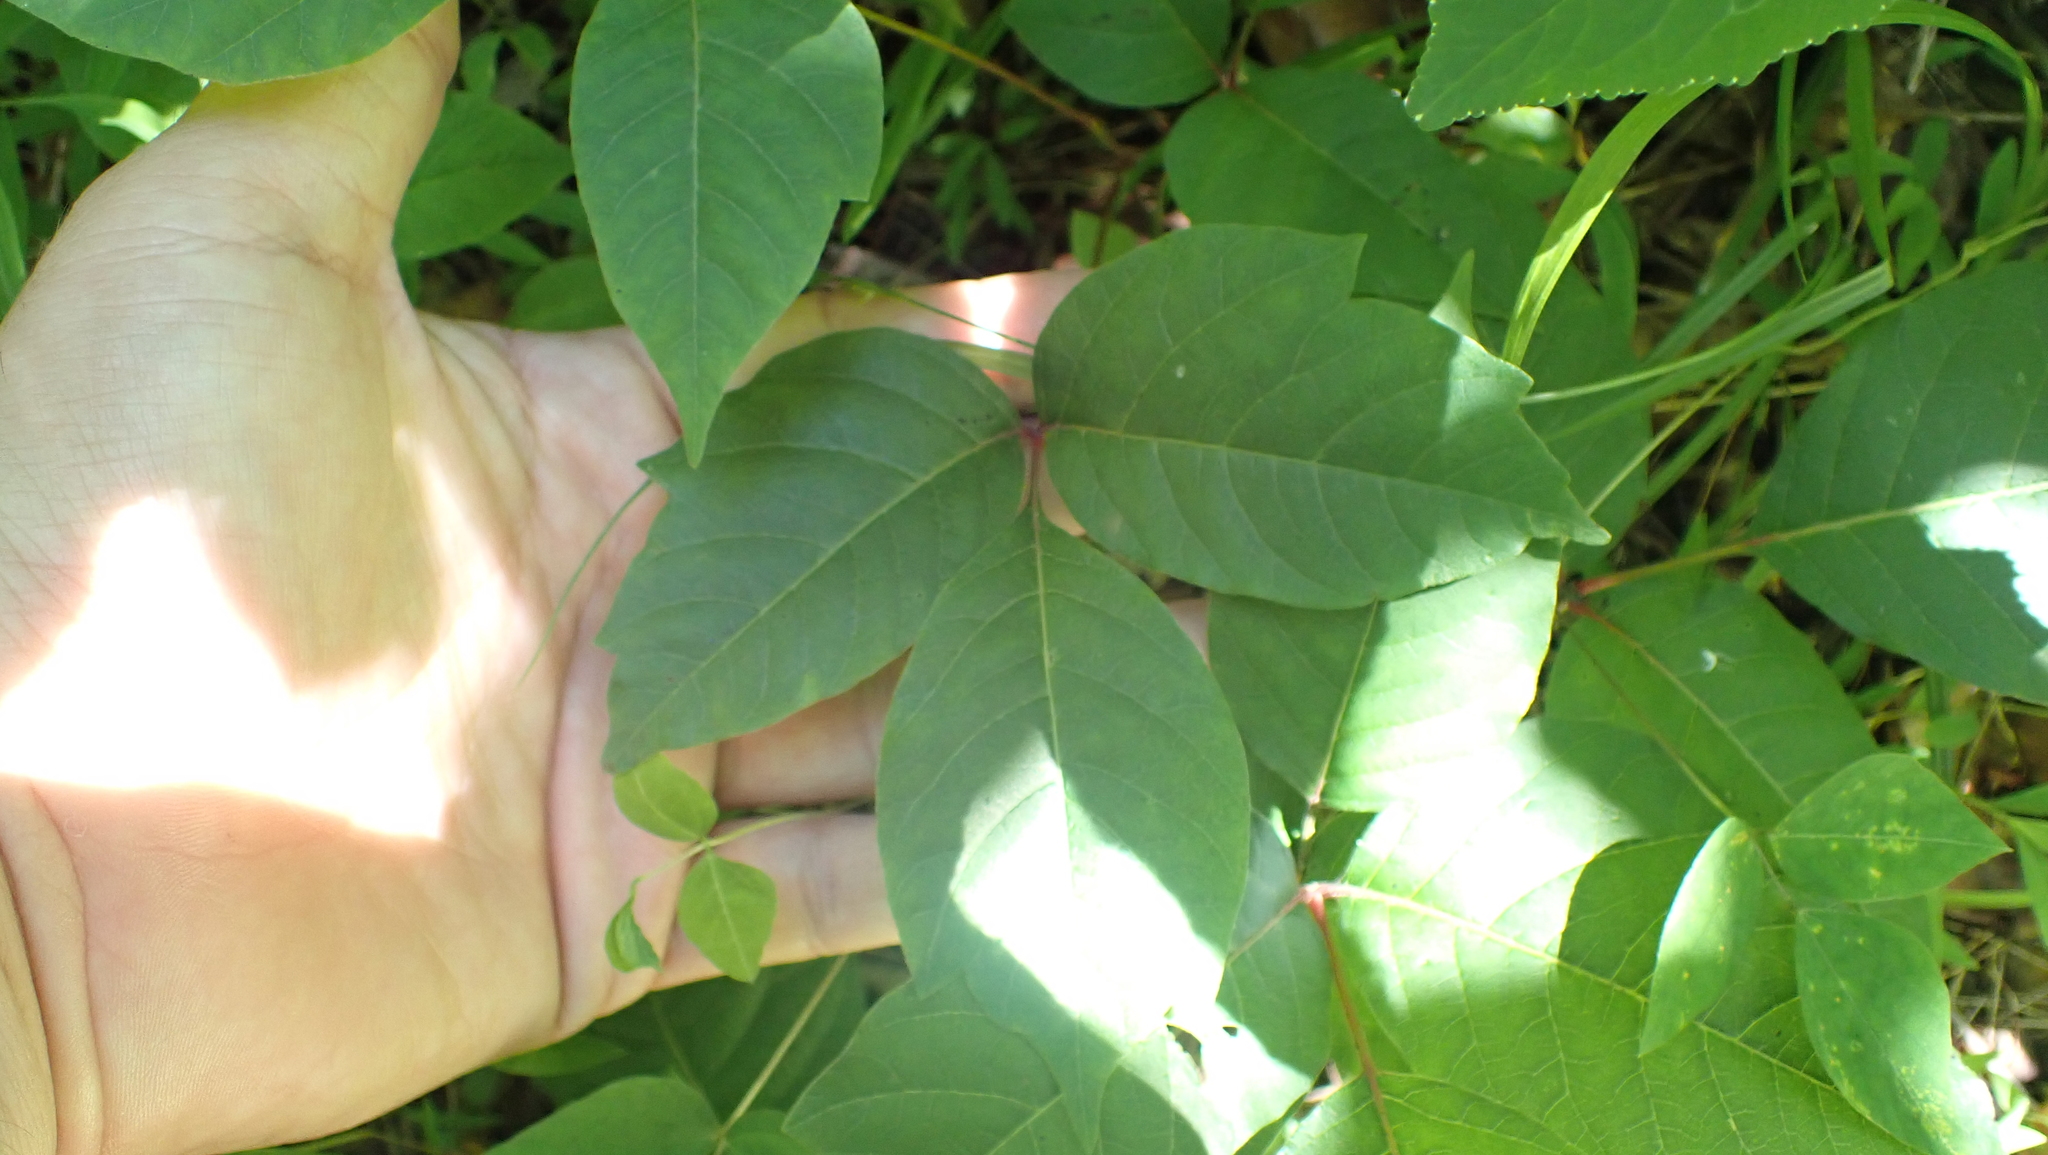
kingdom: Plantae
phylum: Tracheophyta
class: Magnoliopsida
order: Sapindales
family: Anacardiaceae
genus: Toxicodendron
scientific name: Toxicodendron radicans
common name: Poison ivy
